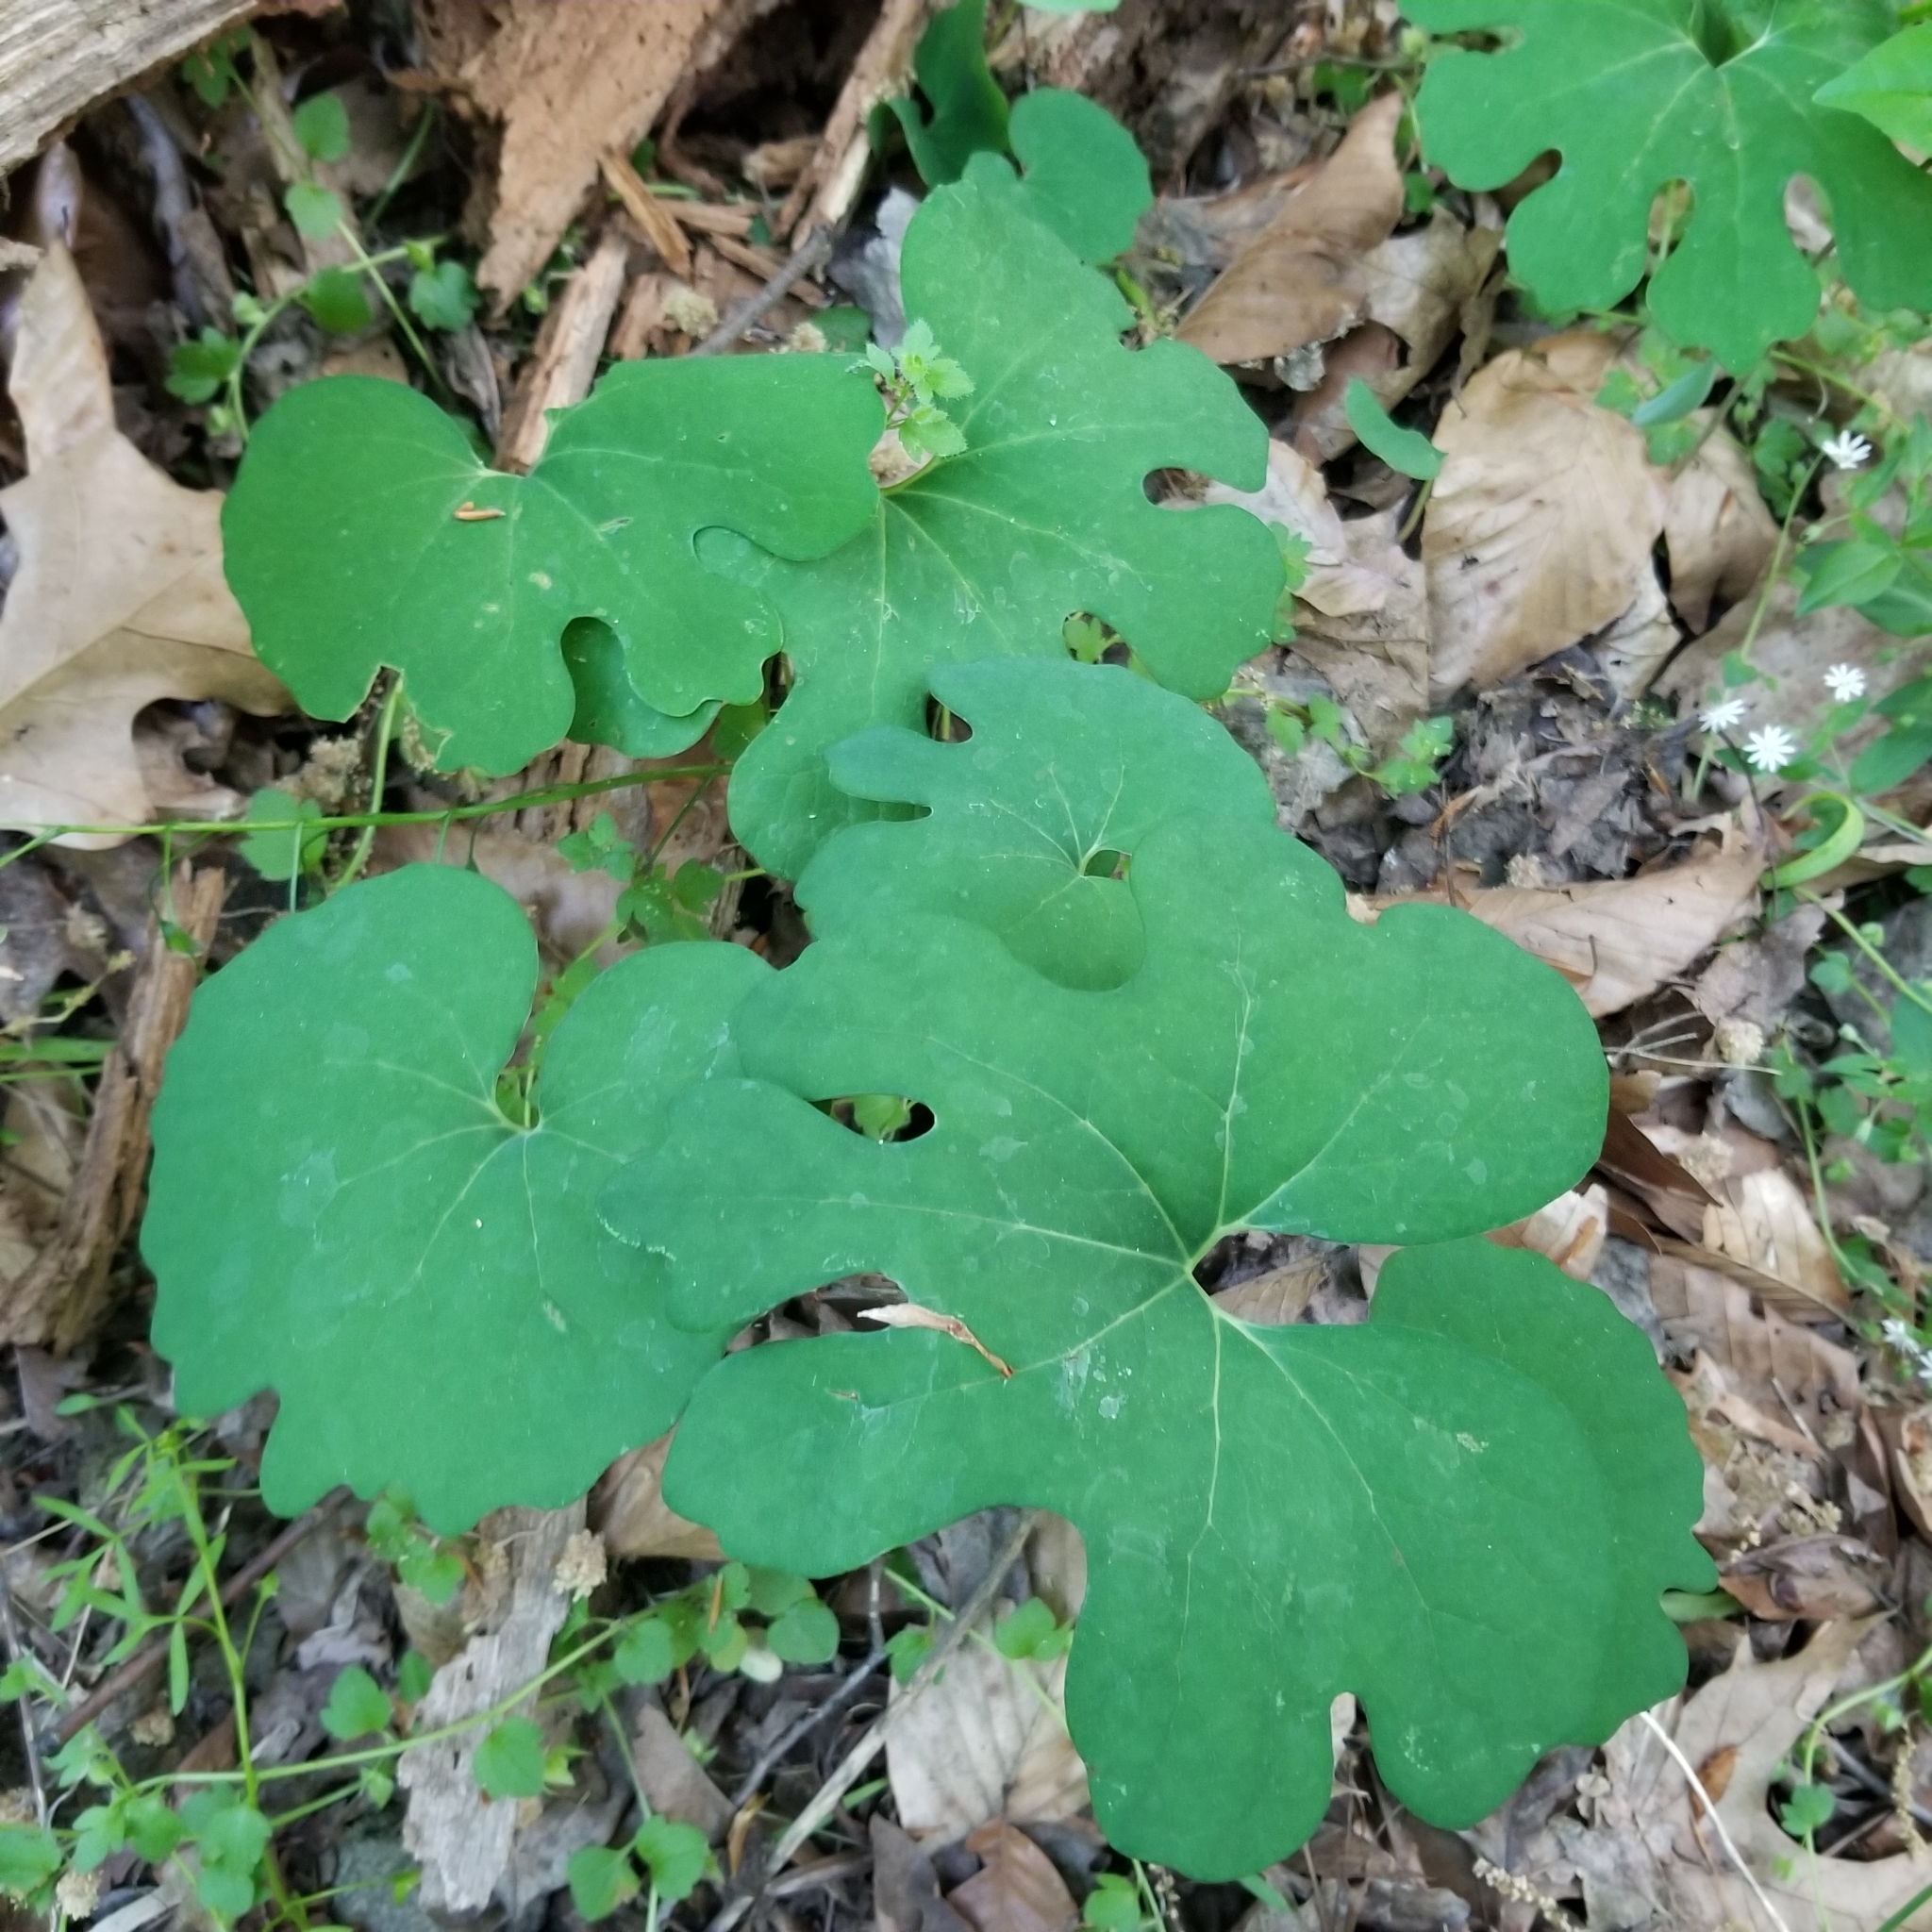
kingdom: Plantae
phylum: Tracheophyta
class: Magnoliopsida
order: Ranunculales
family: Papaveraceae
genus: Sanguinaria
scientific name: Sanguinaria canadensis
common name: Bloodroot
